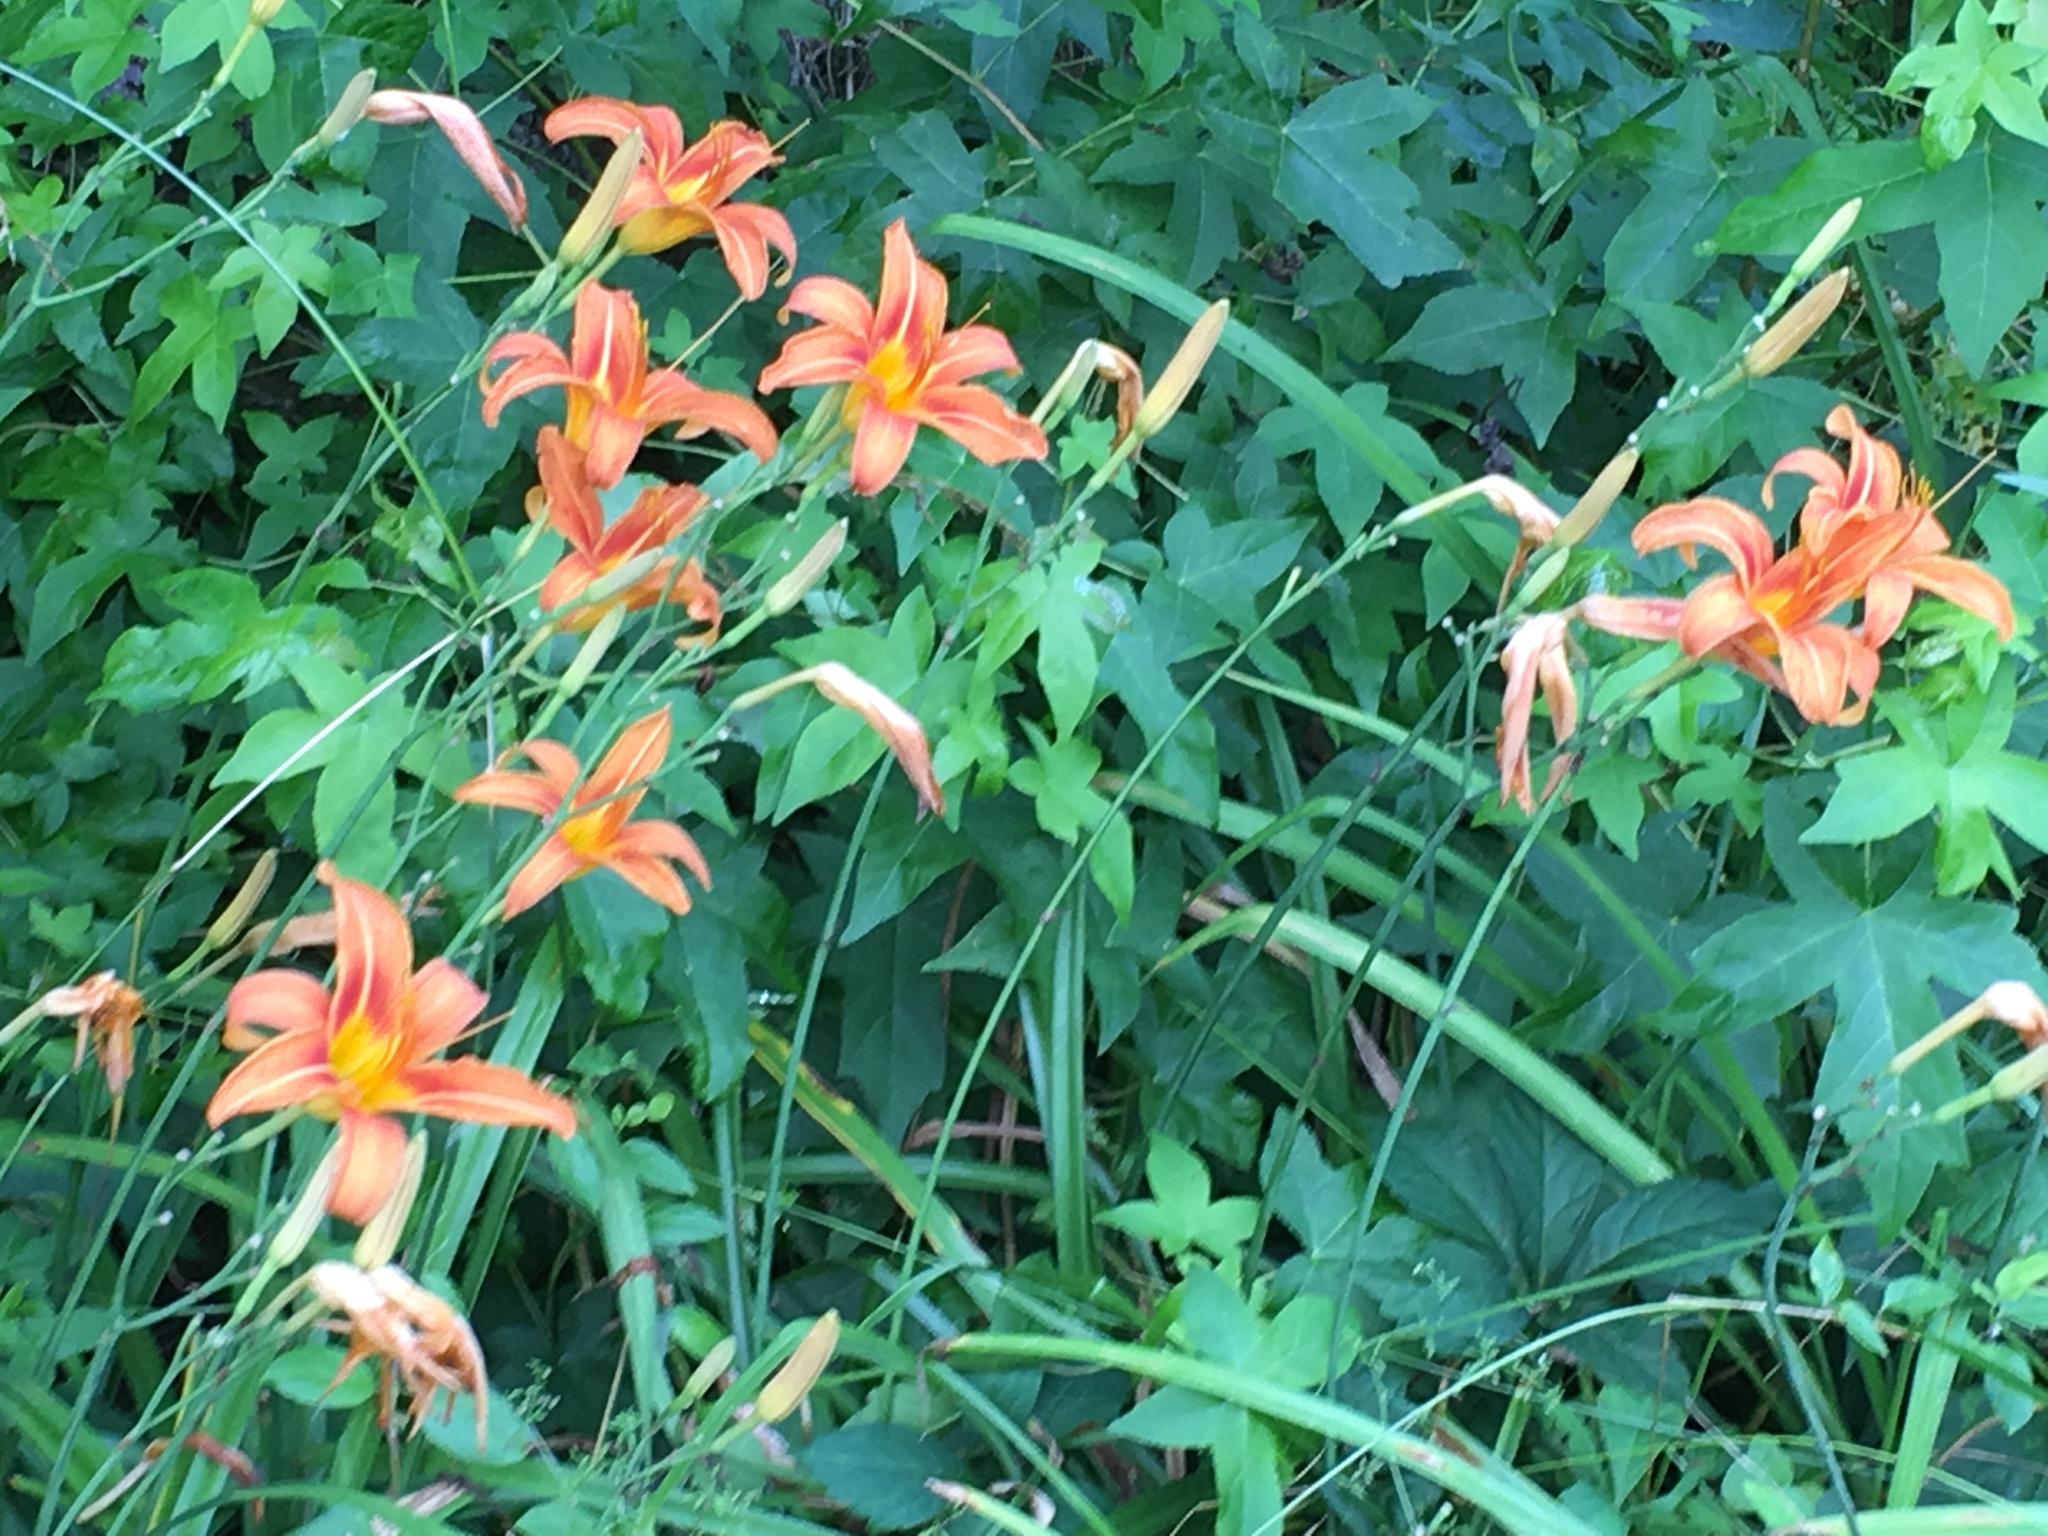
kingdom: Plantae
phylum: Tracheophyta
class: Liliopsida
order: Asparagales
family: Asphodelaceae
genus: Hemerocallis
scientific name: Hemerocallis fulva
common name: Orange day-lily
